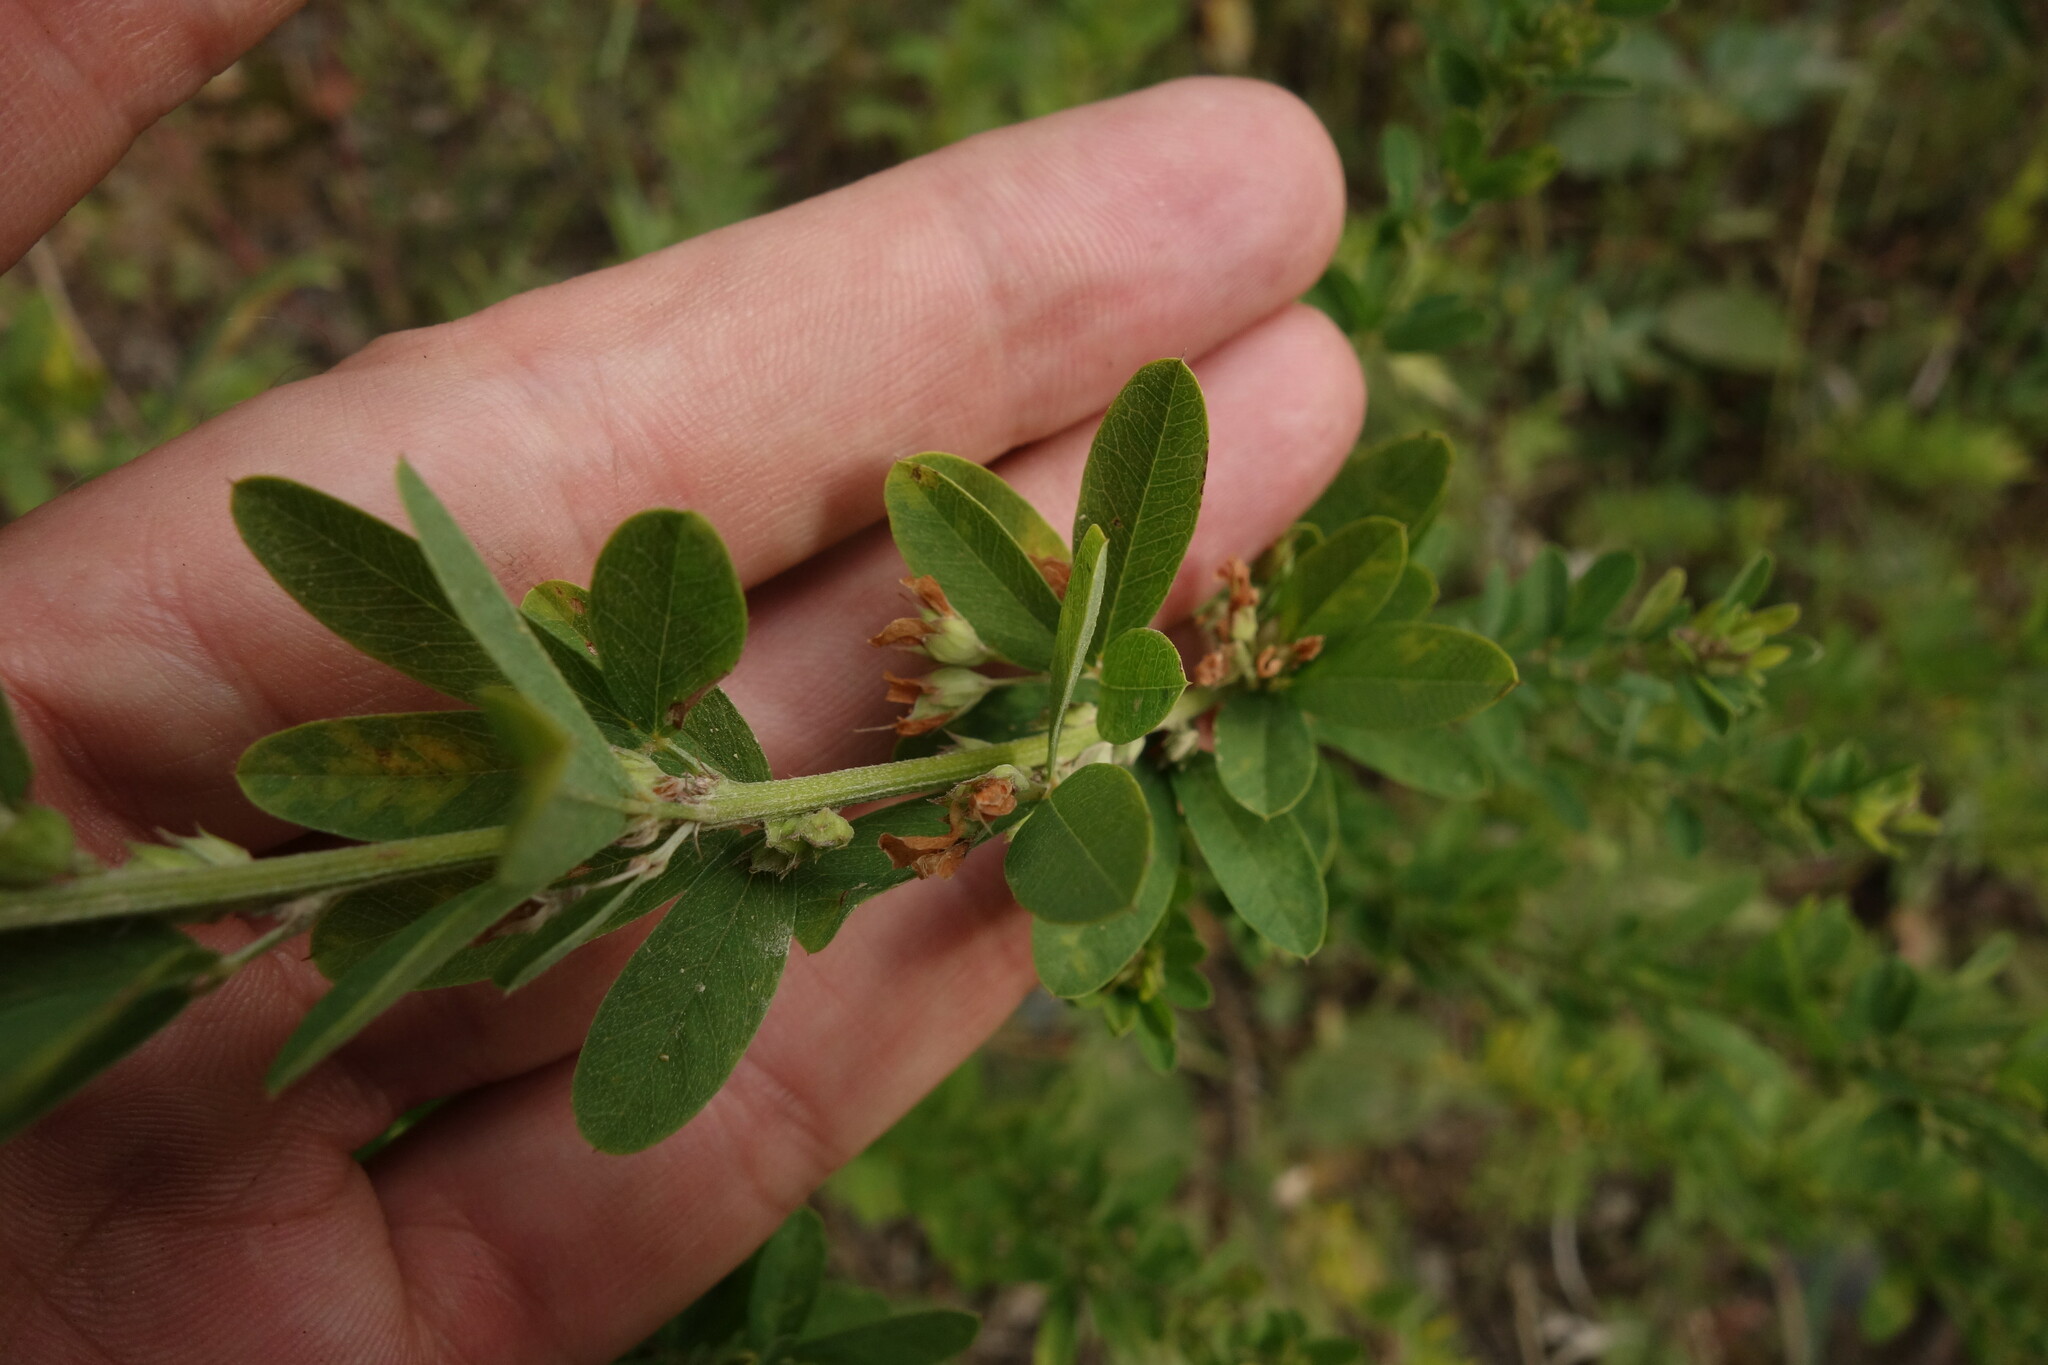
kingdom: Plantae
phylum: Tracheophyta
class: Magnoliopsida
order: Fabales
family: Fabaceae
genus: Lespedeza
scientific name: Lespedeza daurica
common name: Dahurian lespedeza
